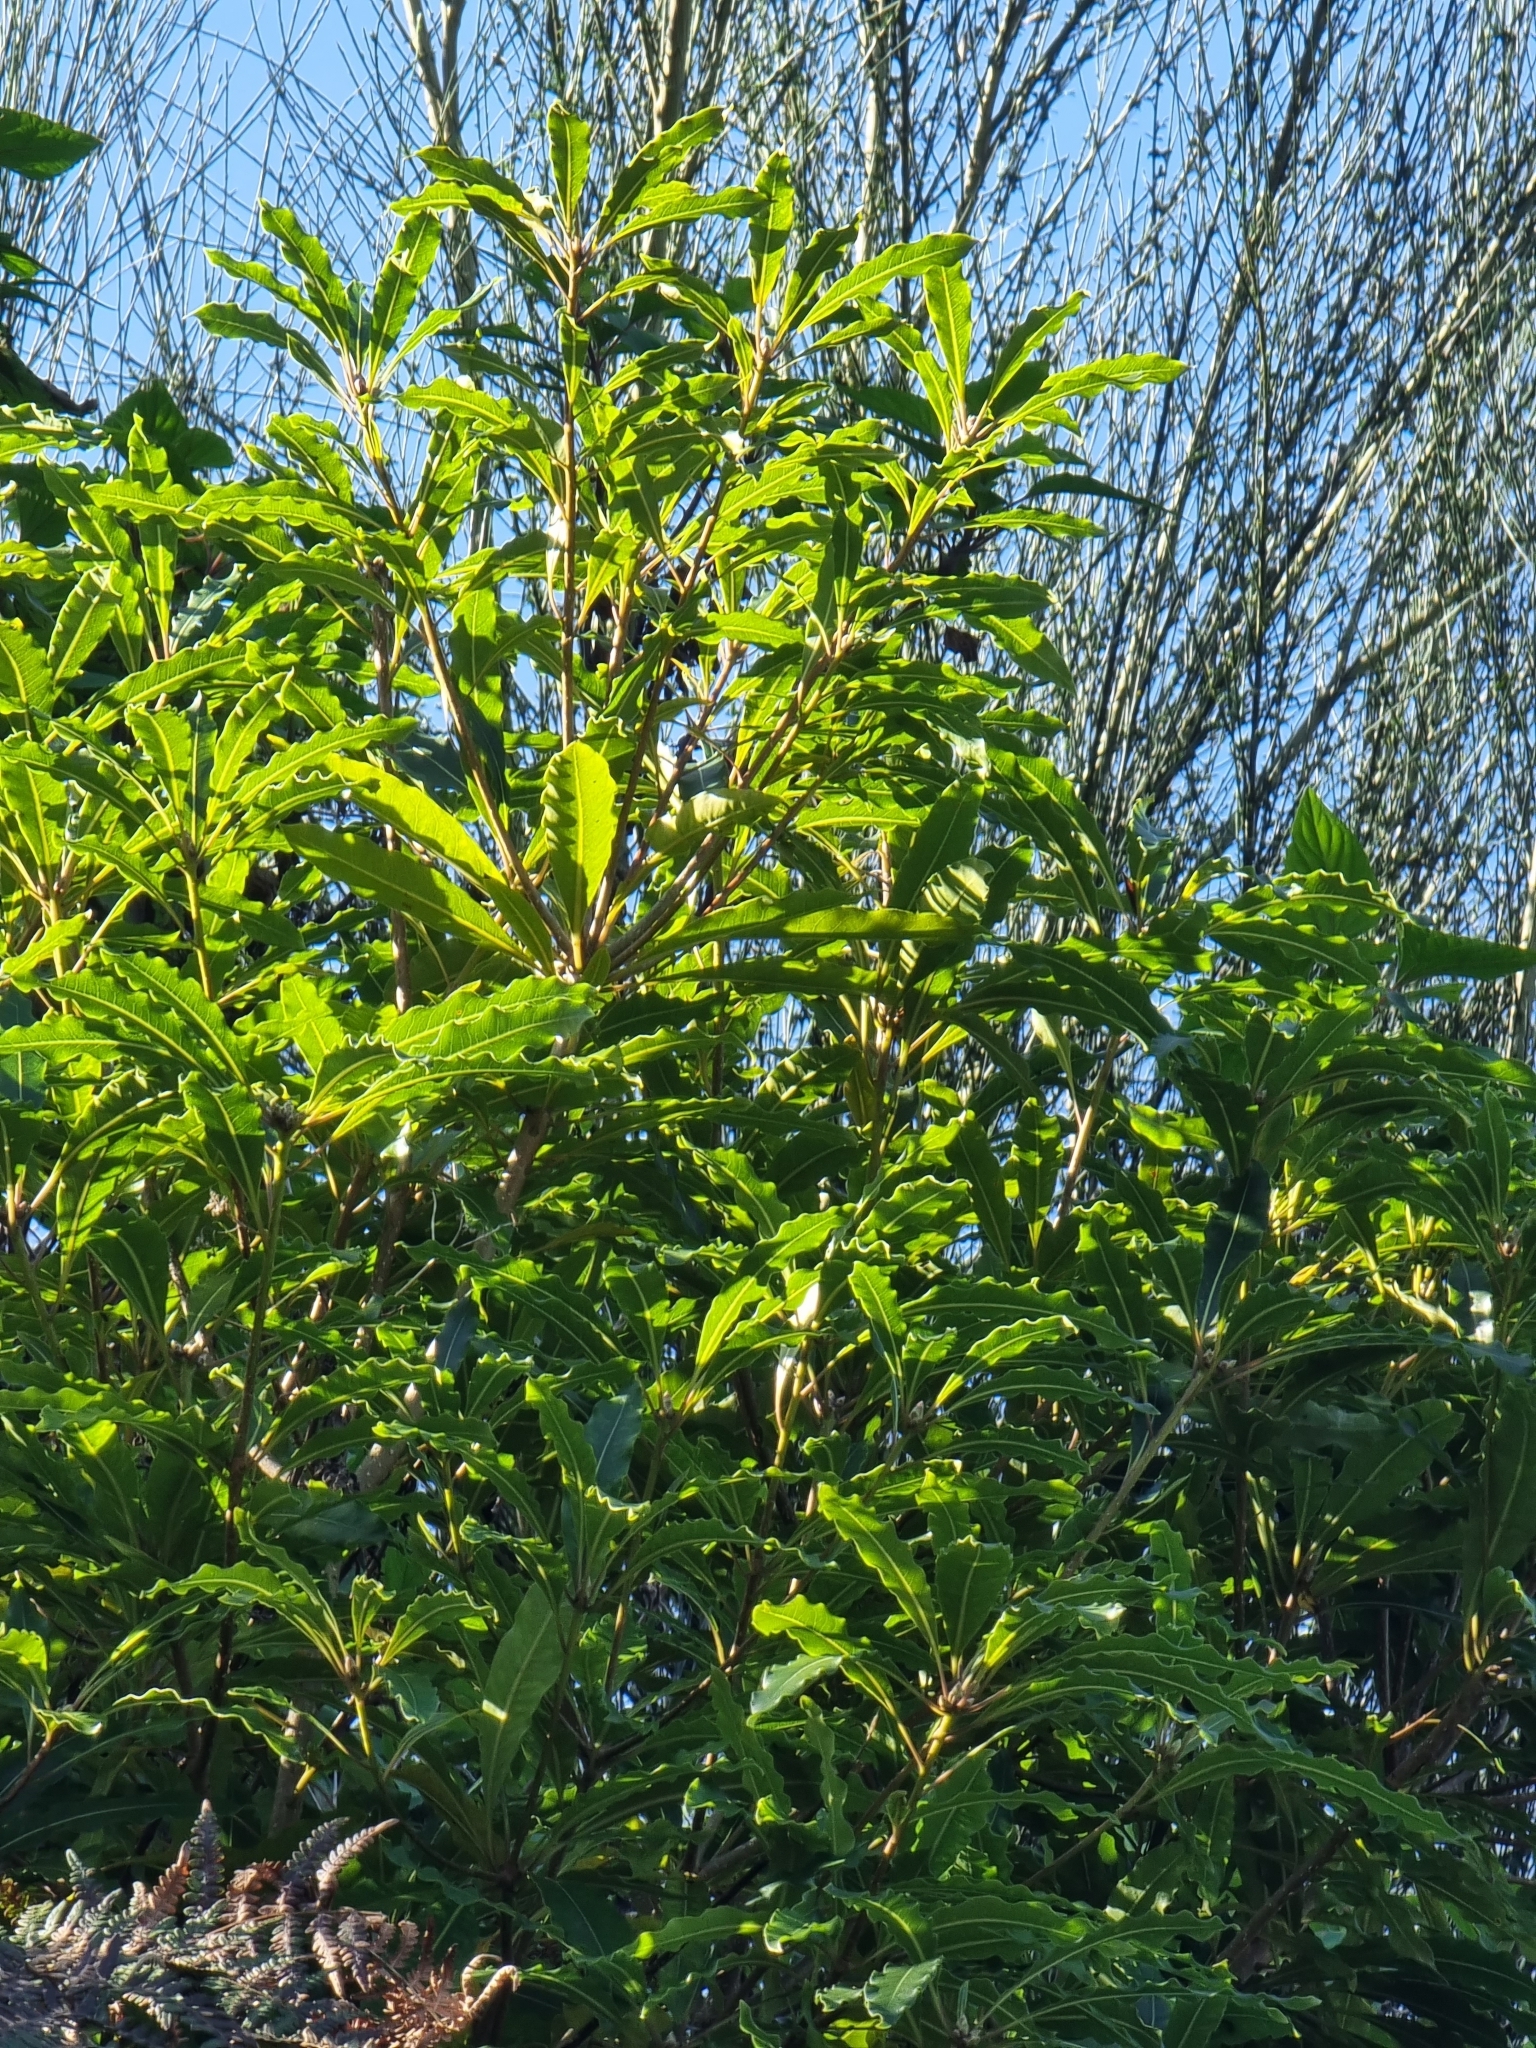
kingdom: Plantae
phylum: Tracheophyta
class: Magnoliopsida
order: Apiales
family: Pittosporaceae
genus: Pittosporum
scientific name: Pittosporum undulatum
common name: Australian cheesewood
